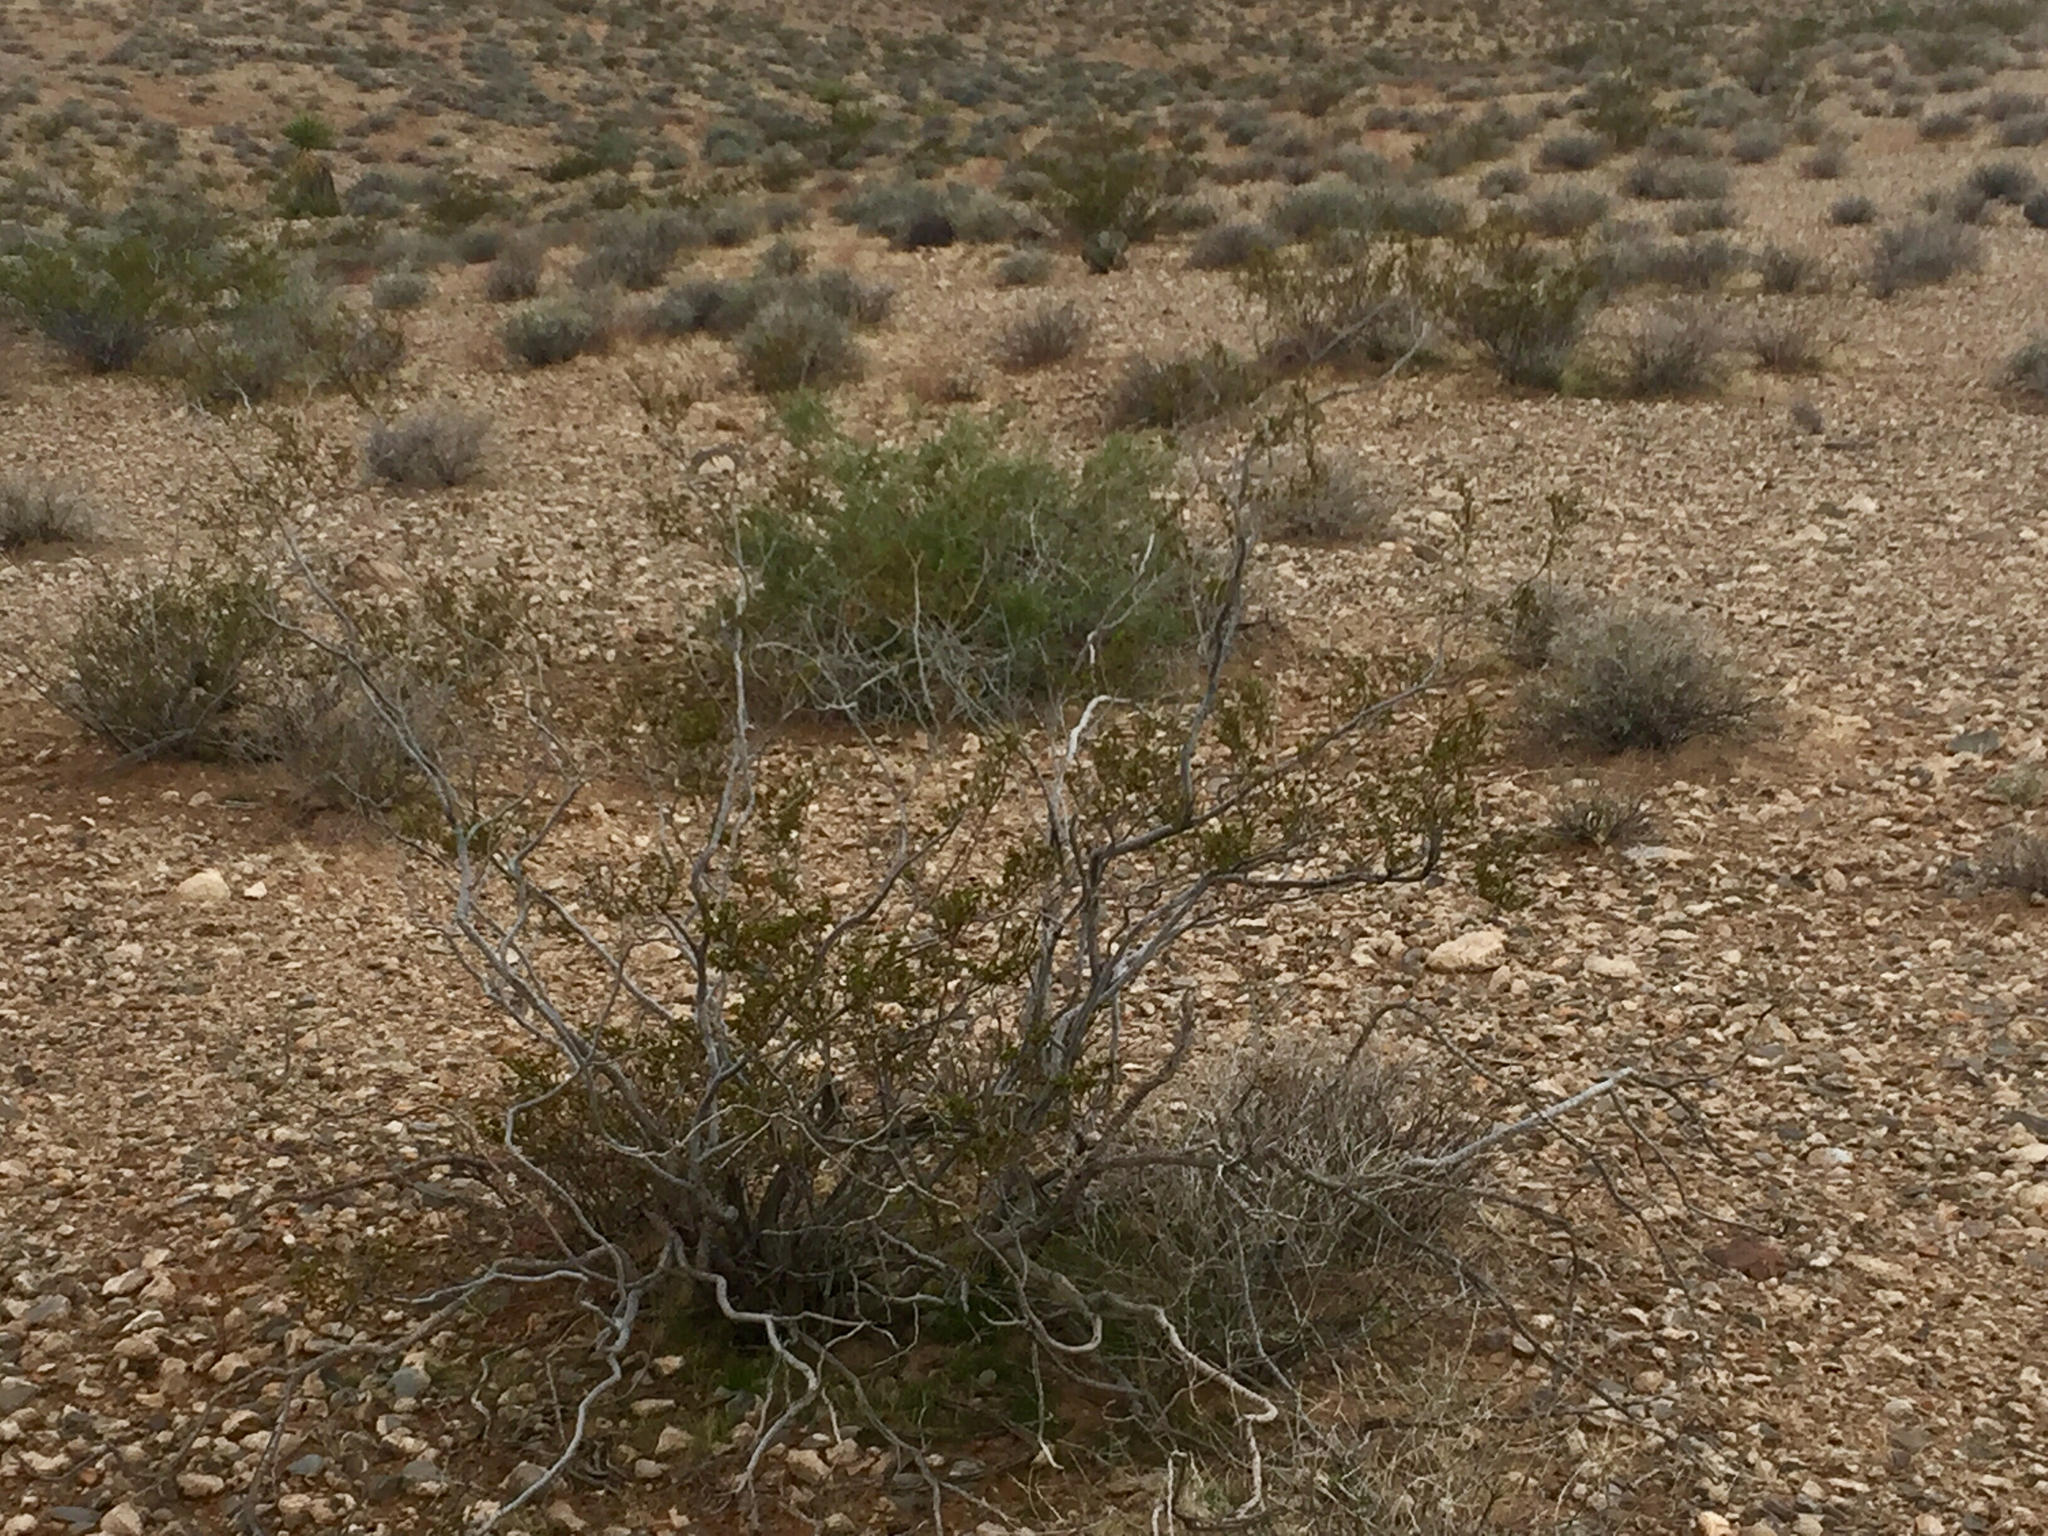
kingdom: Plantae
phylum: Tracheophyta
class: Magnoliopsida
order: Zygophyllales
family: Zygophyllaceae
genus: Larrea
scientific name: Larrea tridentata
